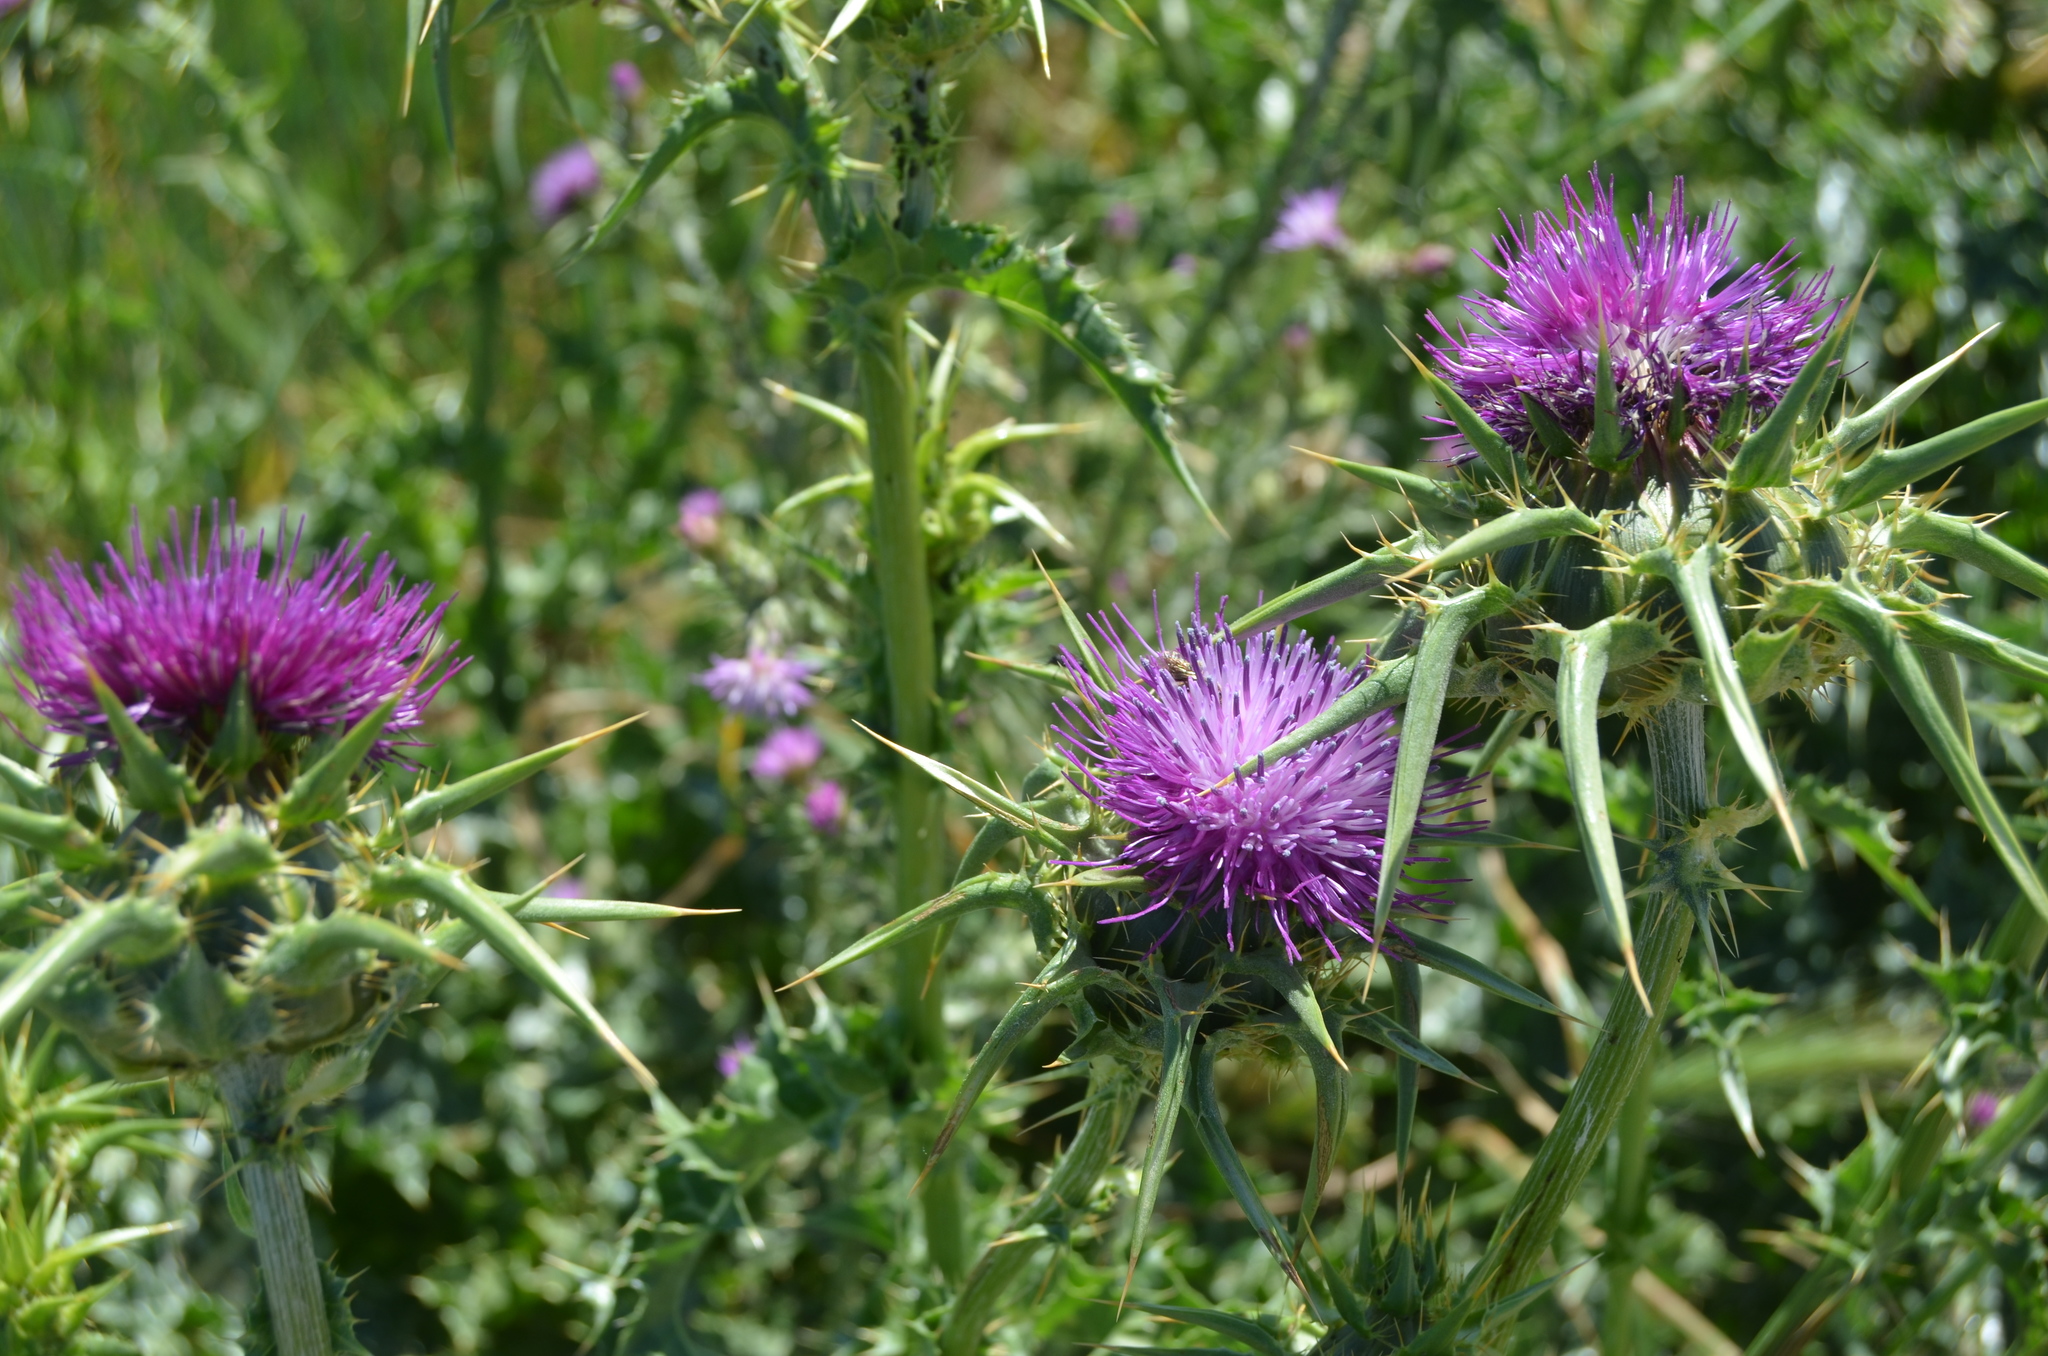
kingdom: Plantae
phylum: Tracheophyta
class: Magnoliopsida
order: Asterales
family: Asteraceae
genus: Silybum
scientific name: Silybum marianum
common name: Milk thistle
